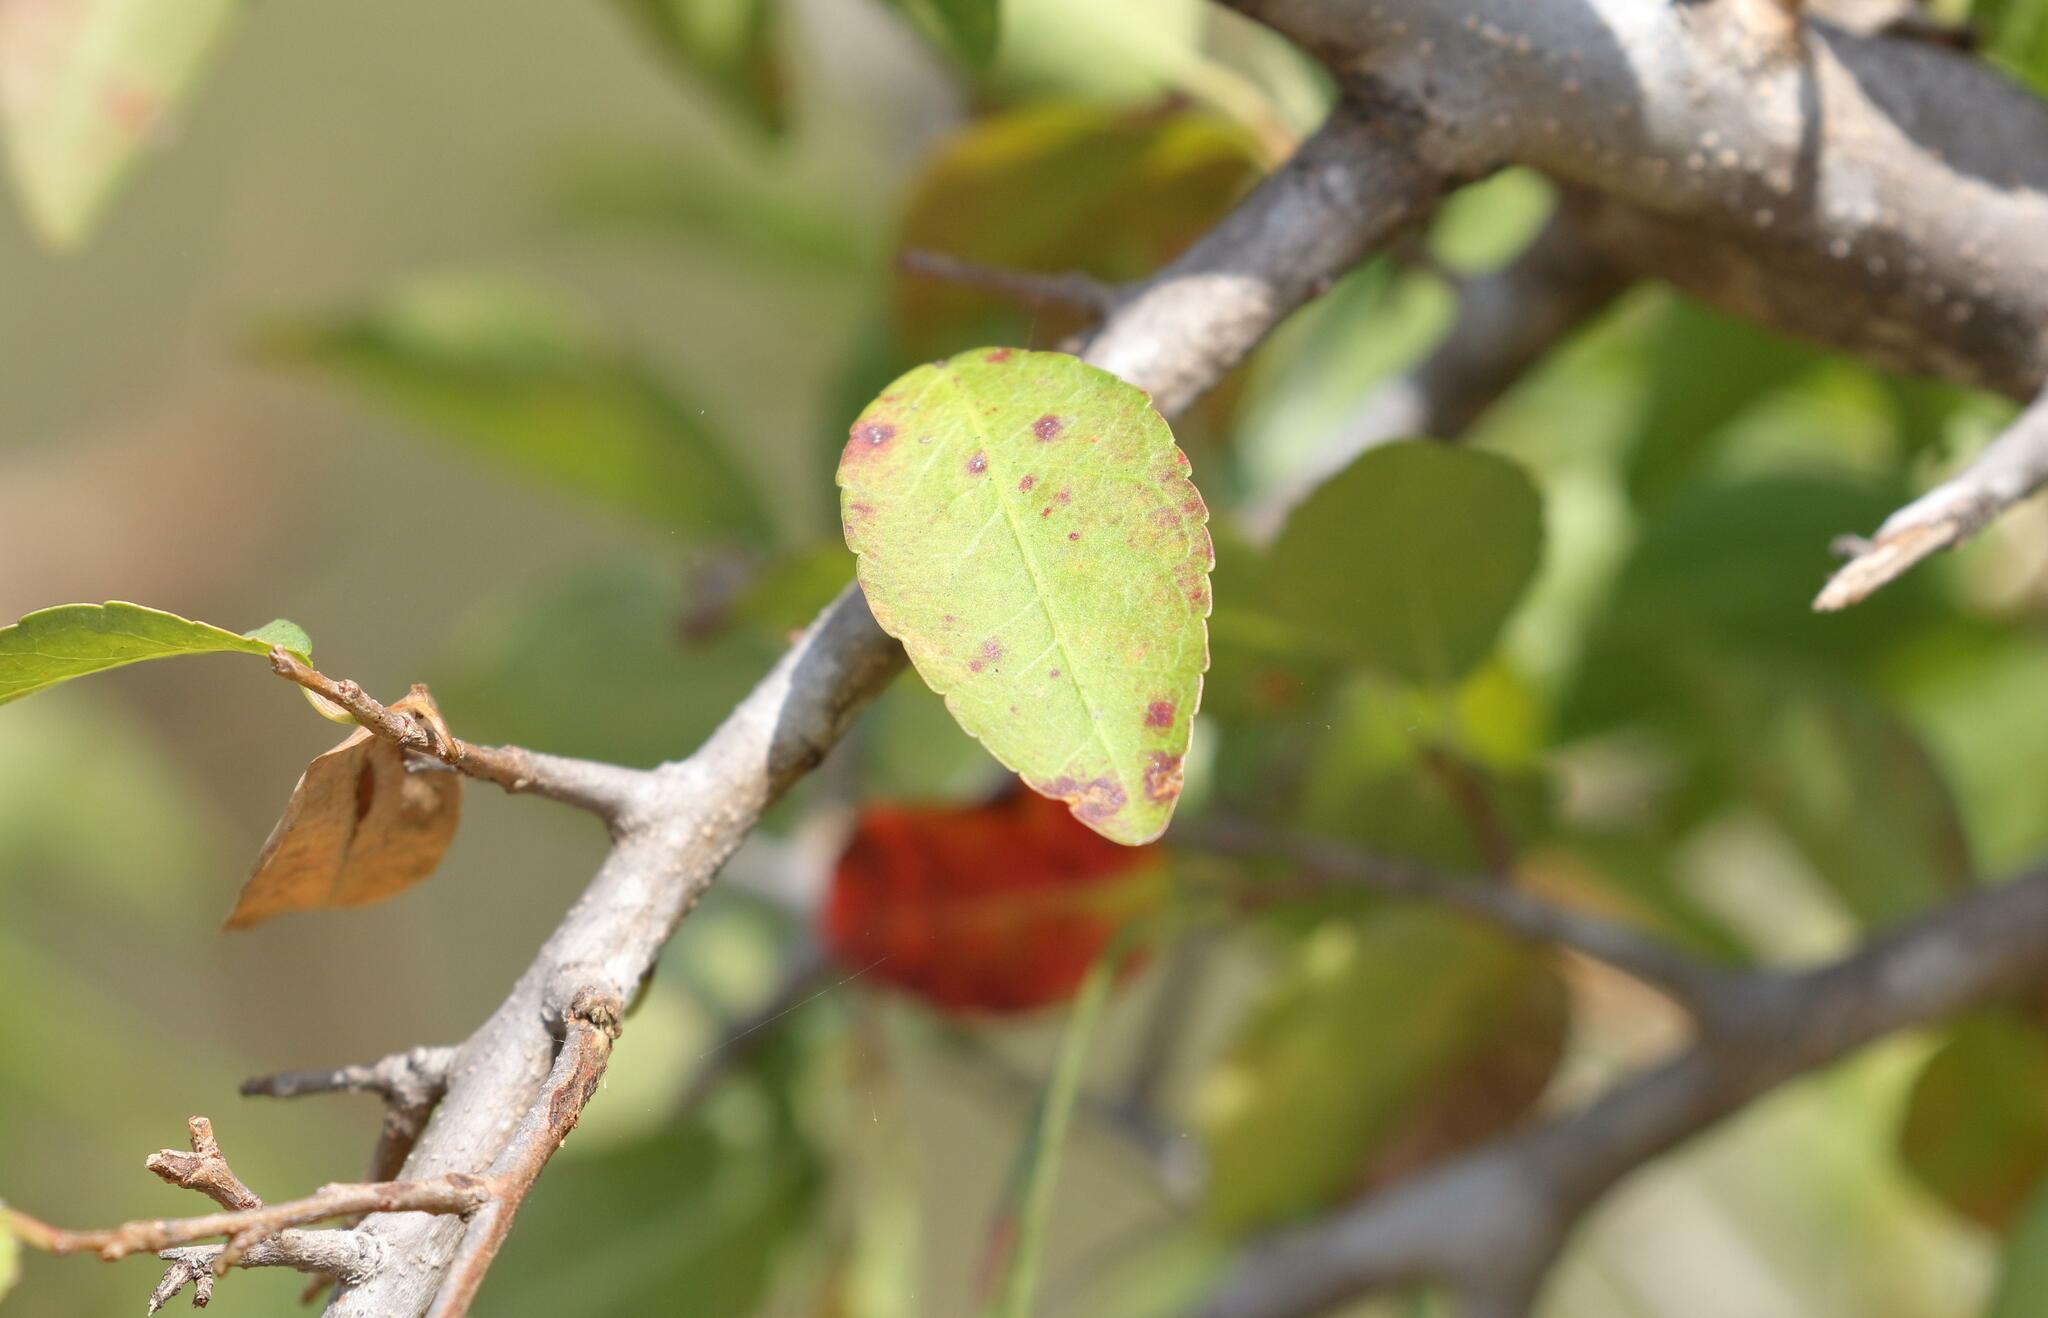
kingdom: Plantae
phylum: Tracheophyta
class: Magnoliopsida
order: Malpighiales
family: Euphorbiaceae
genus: Spirostachys
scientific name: Spirostachys africana
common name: Tamboti
